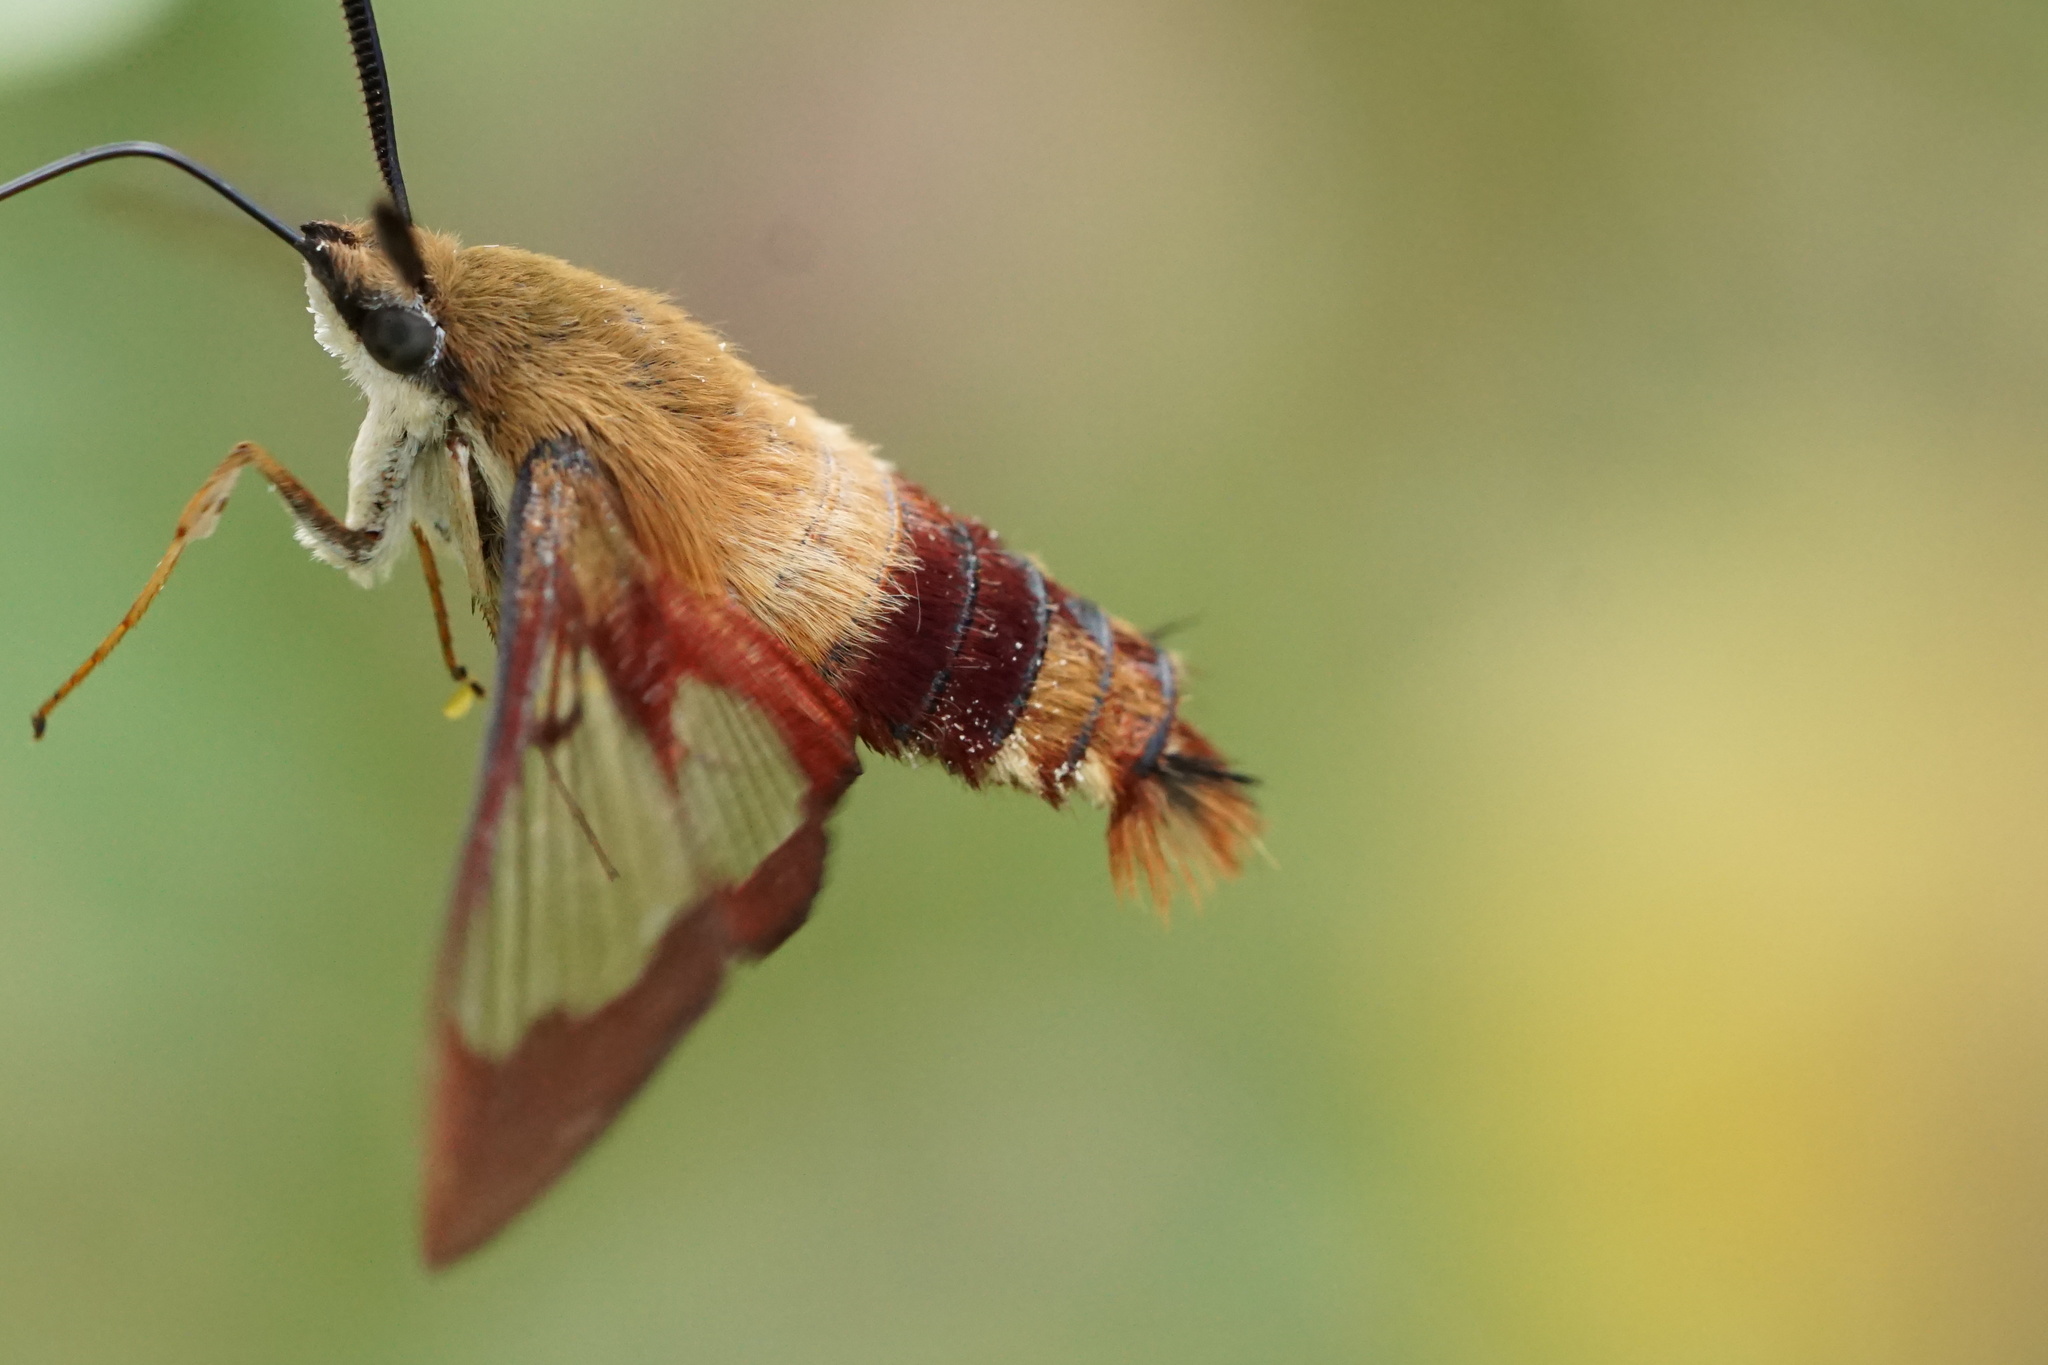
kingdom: Animalia
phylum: Arthropoda
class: Insecta
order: Lepidoptera
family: Sphingidae
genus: Hemaris
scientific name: Hemaris thysbe
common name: Common clear-wing
